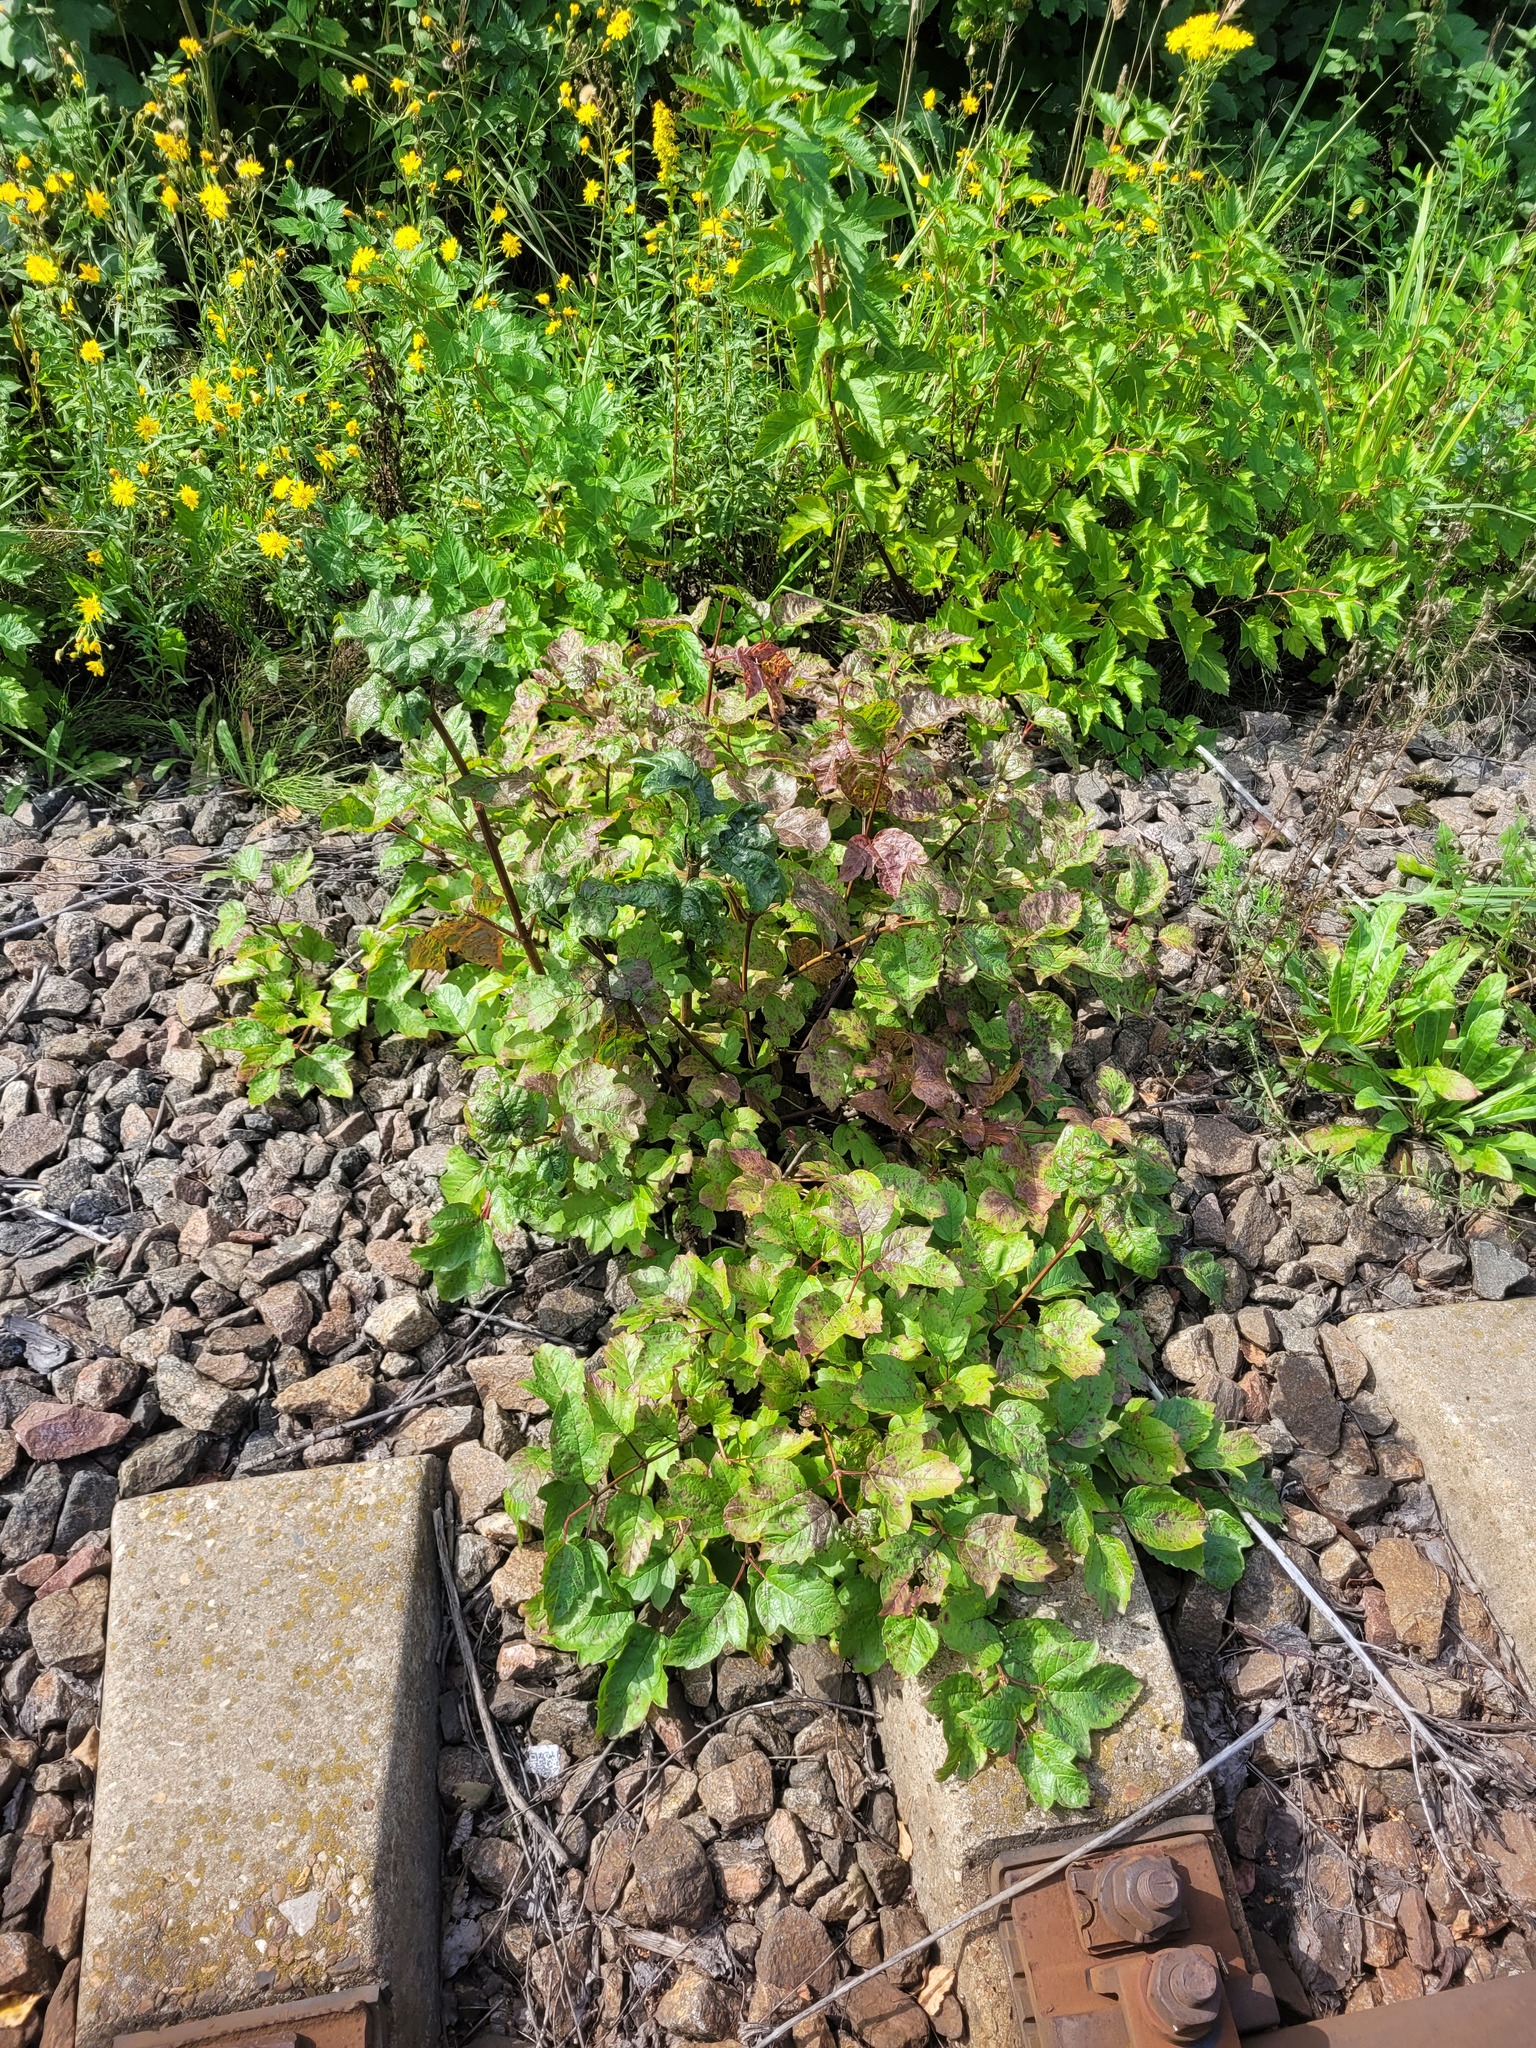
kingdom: Plantae
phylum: Tracheophyta
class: Magnoliopsida
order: Dipsacales
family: Viburnaceae
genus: Viburnum
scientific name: Viburnum opulus
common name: Guelder-rose
